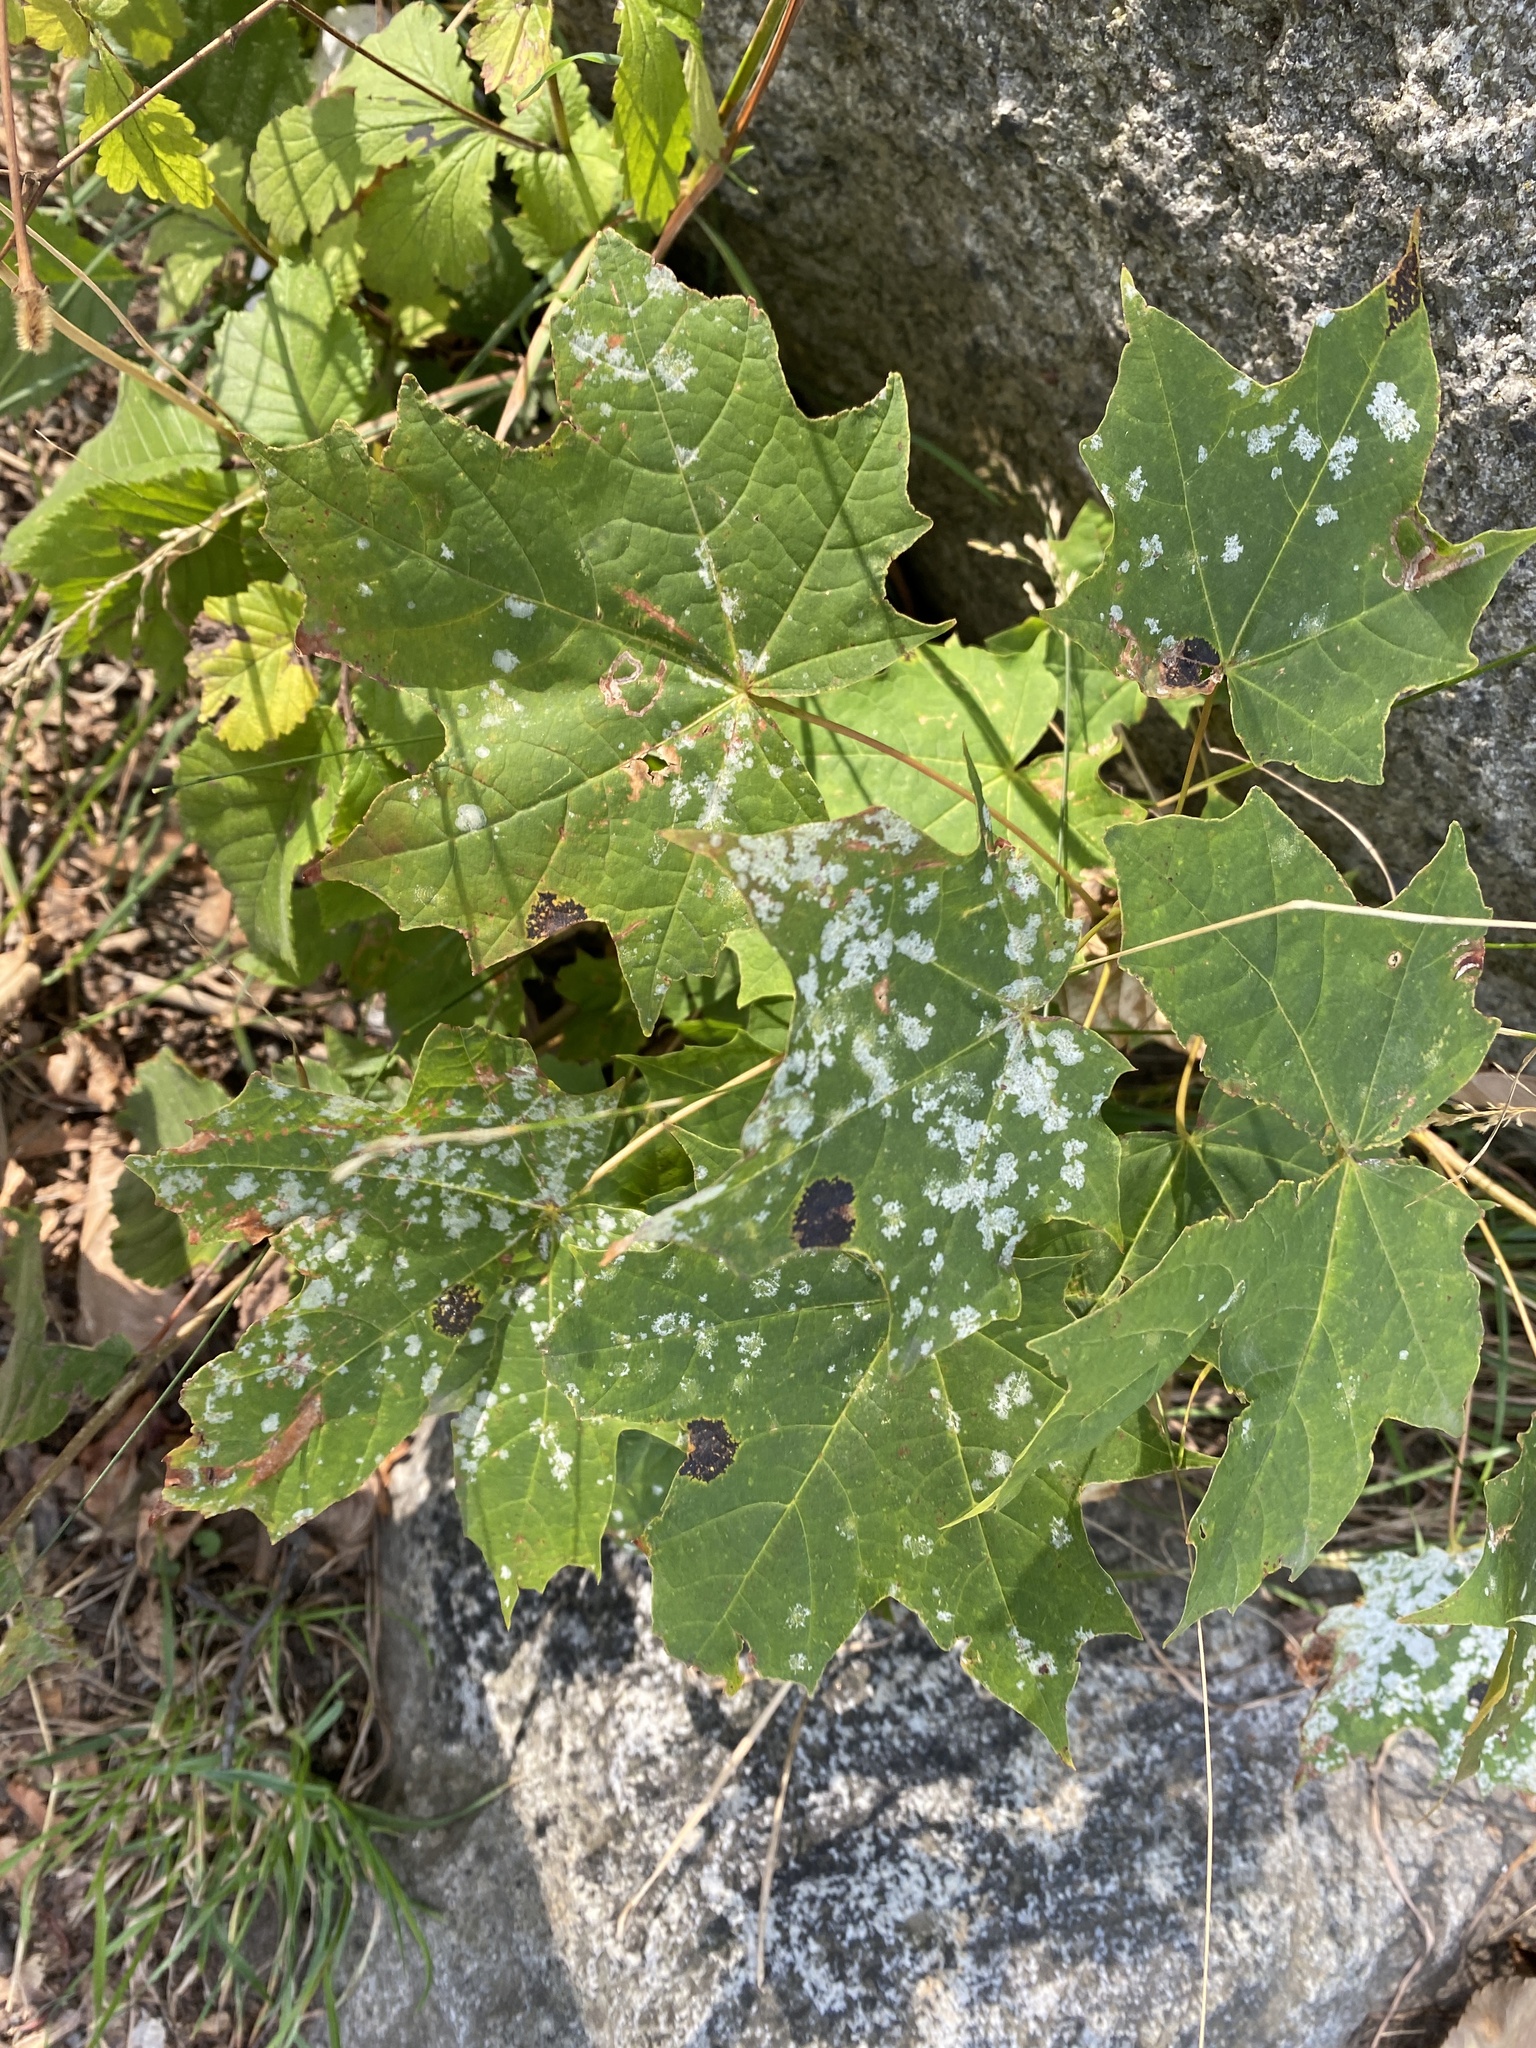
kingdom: Fungi
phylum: Ascomycota
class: Leotiomycetes
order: Helotiales
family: Erysiphaceae
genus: Sawadaea
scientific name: Sawadaea tulasnei
